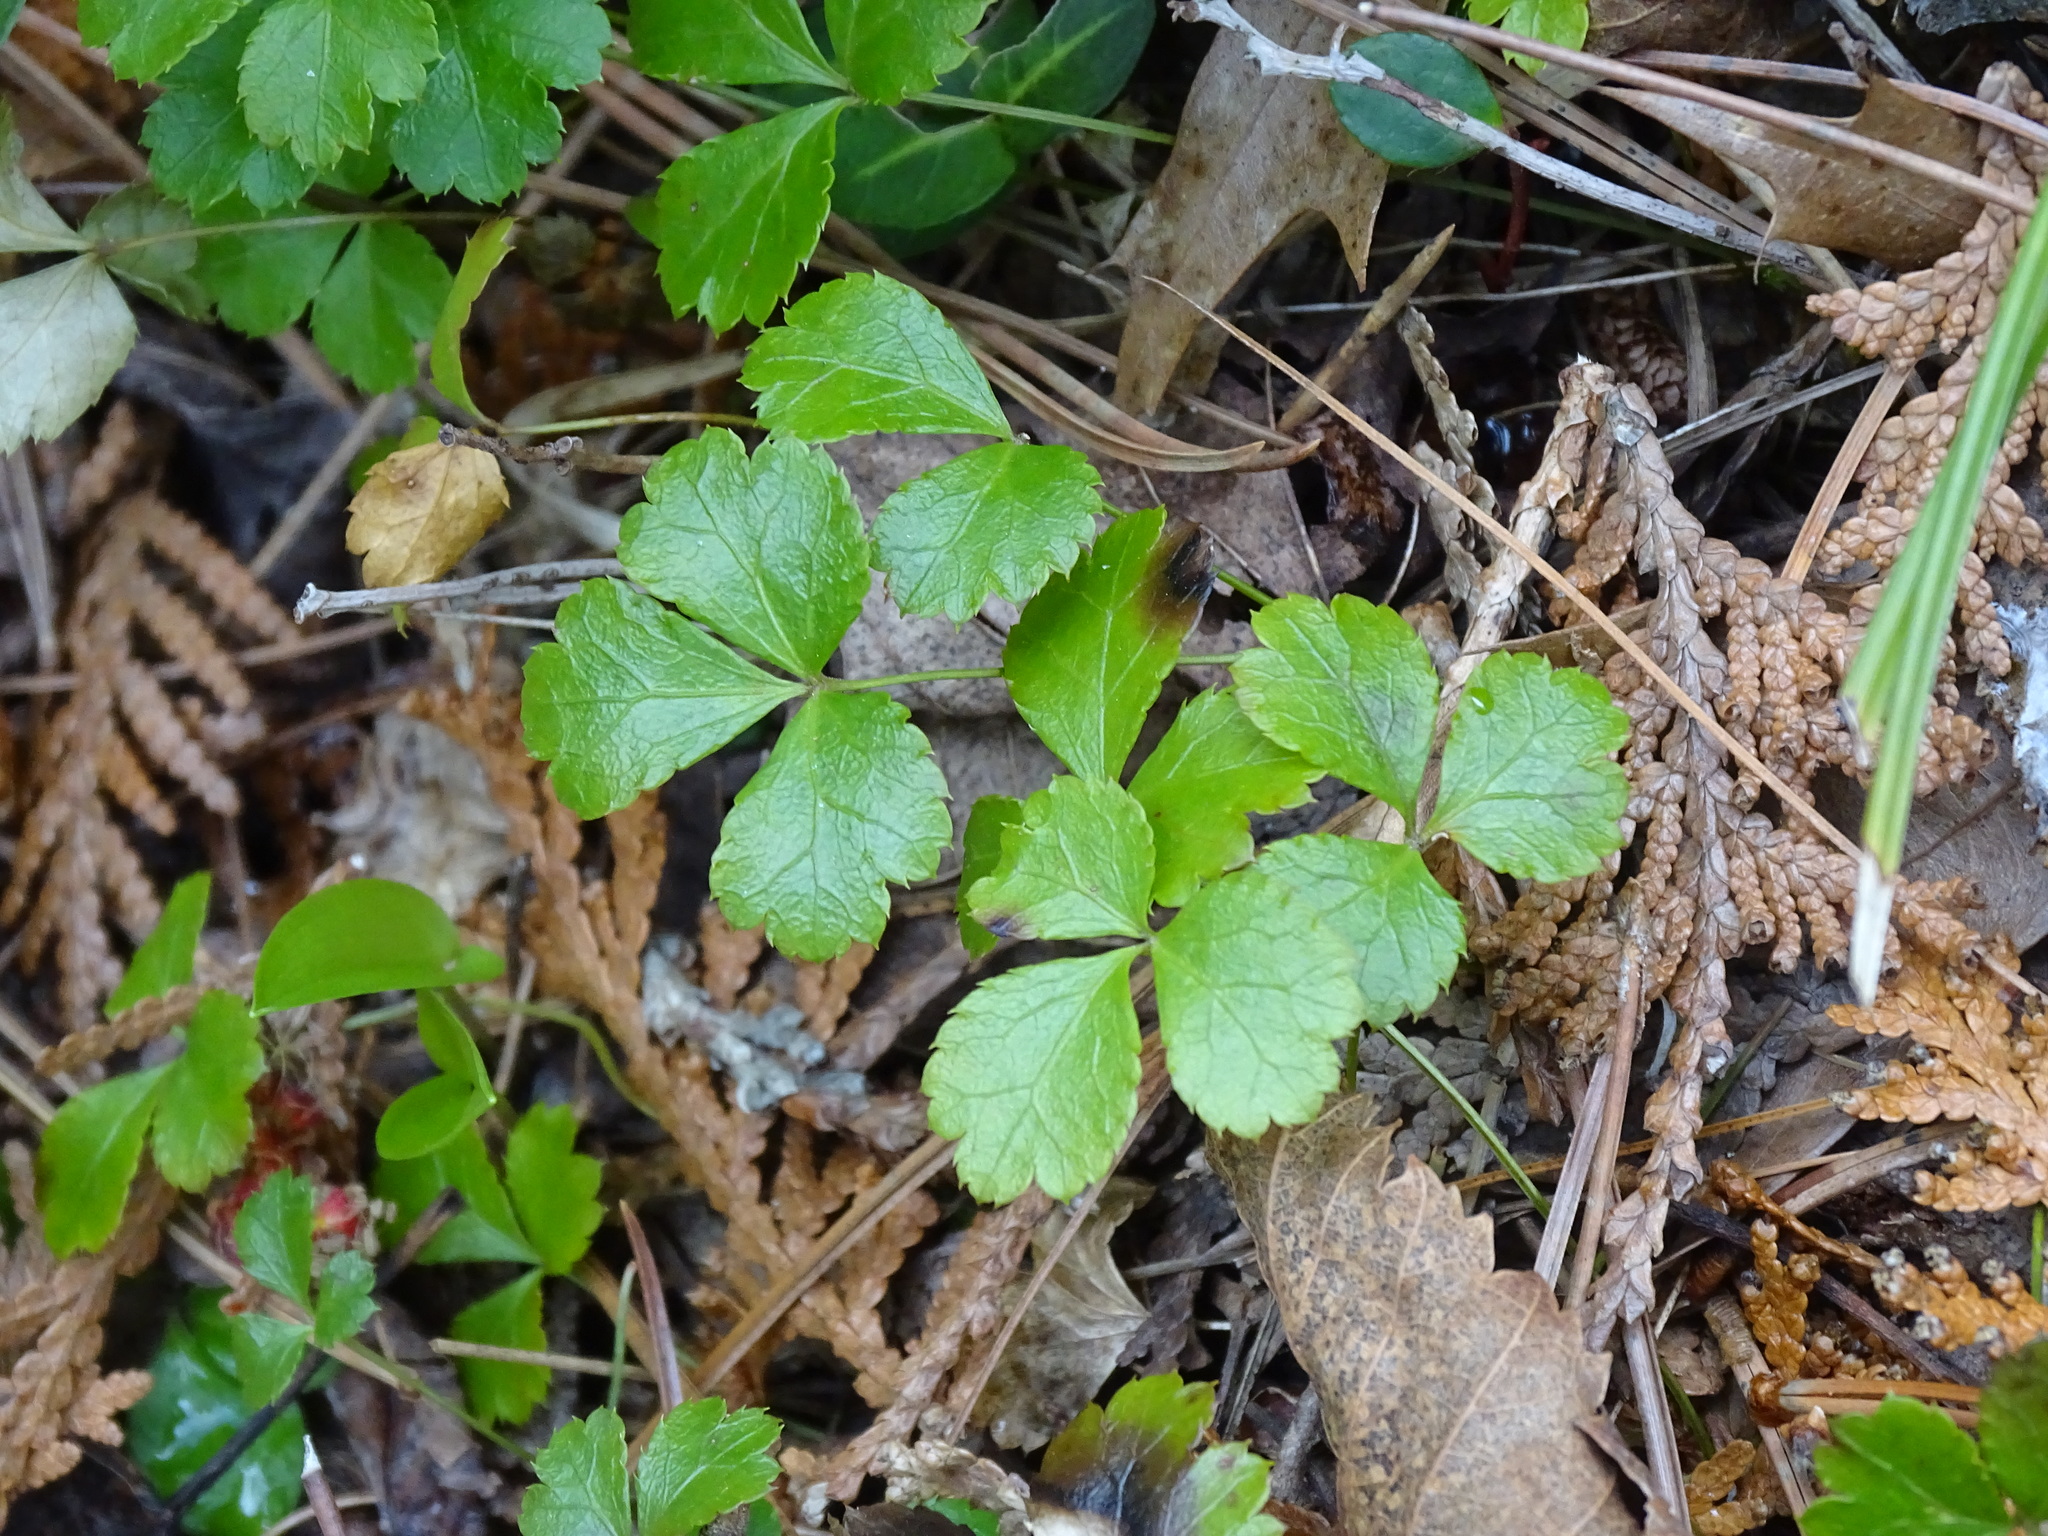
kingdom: Plantae
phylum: Tracheophyta
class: Magnoliopsida
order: Ranunculales
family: Ranunculaceae
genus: Coptis
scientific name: Coptis trifolia
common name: Canker-root
